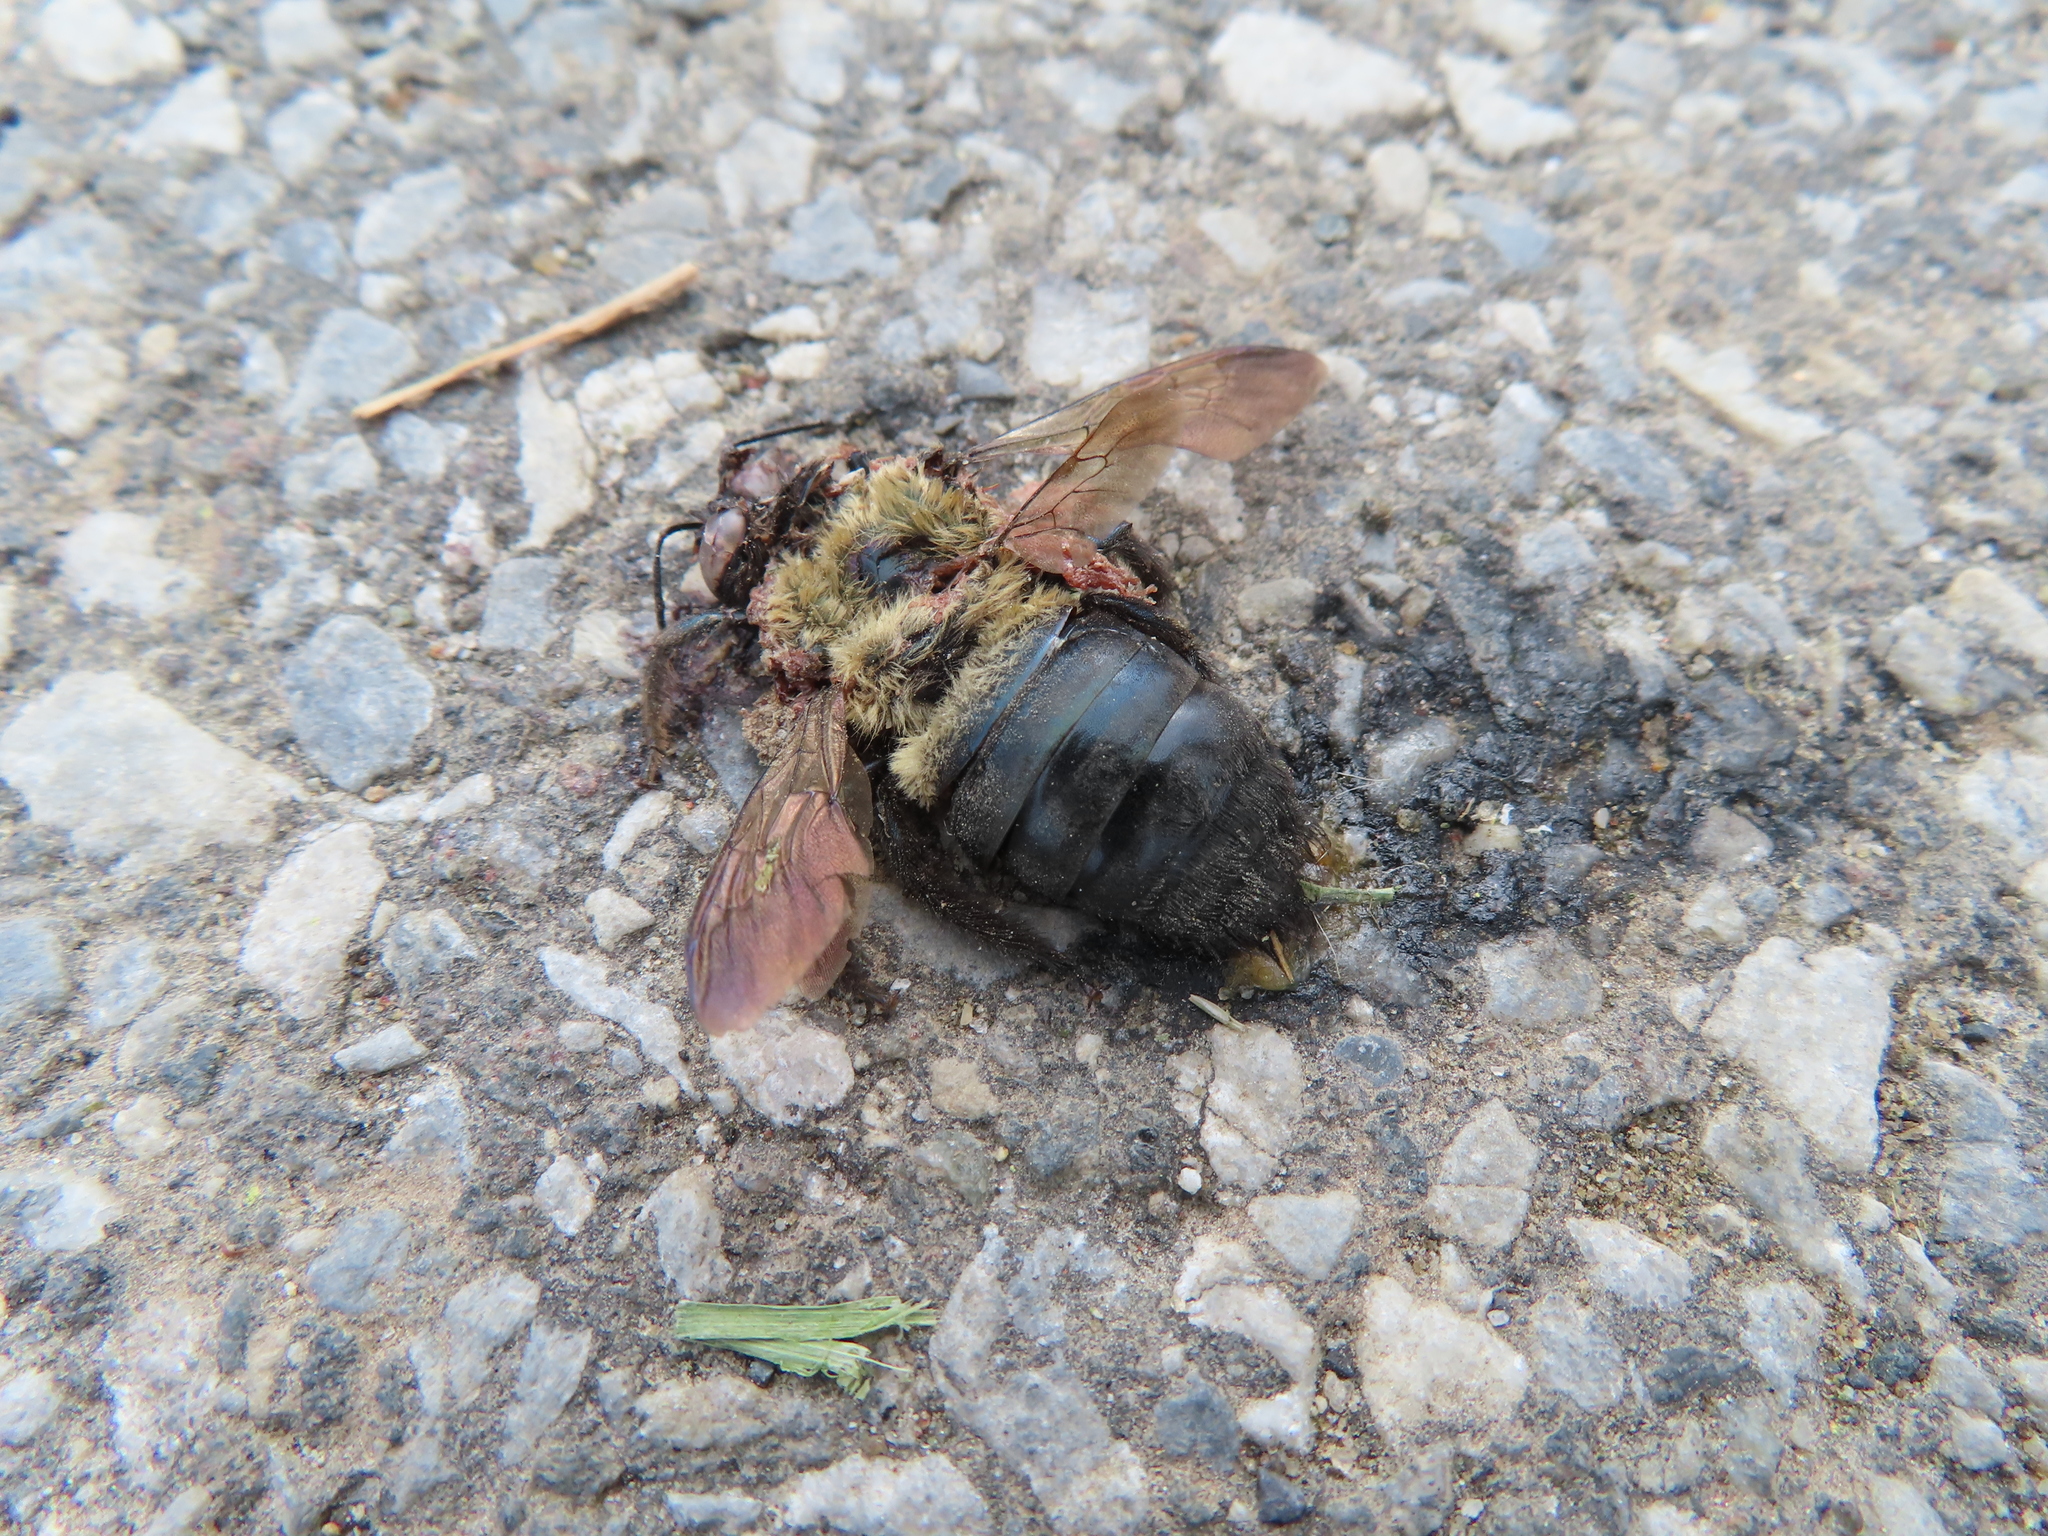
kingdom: Animalia
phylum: Arthropoda
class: Insecta
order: Hymenoptera
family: Apidae
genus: Xylocopa
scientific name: Xylocopa virginica
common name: Carpenter bee
